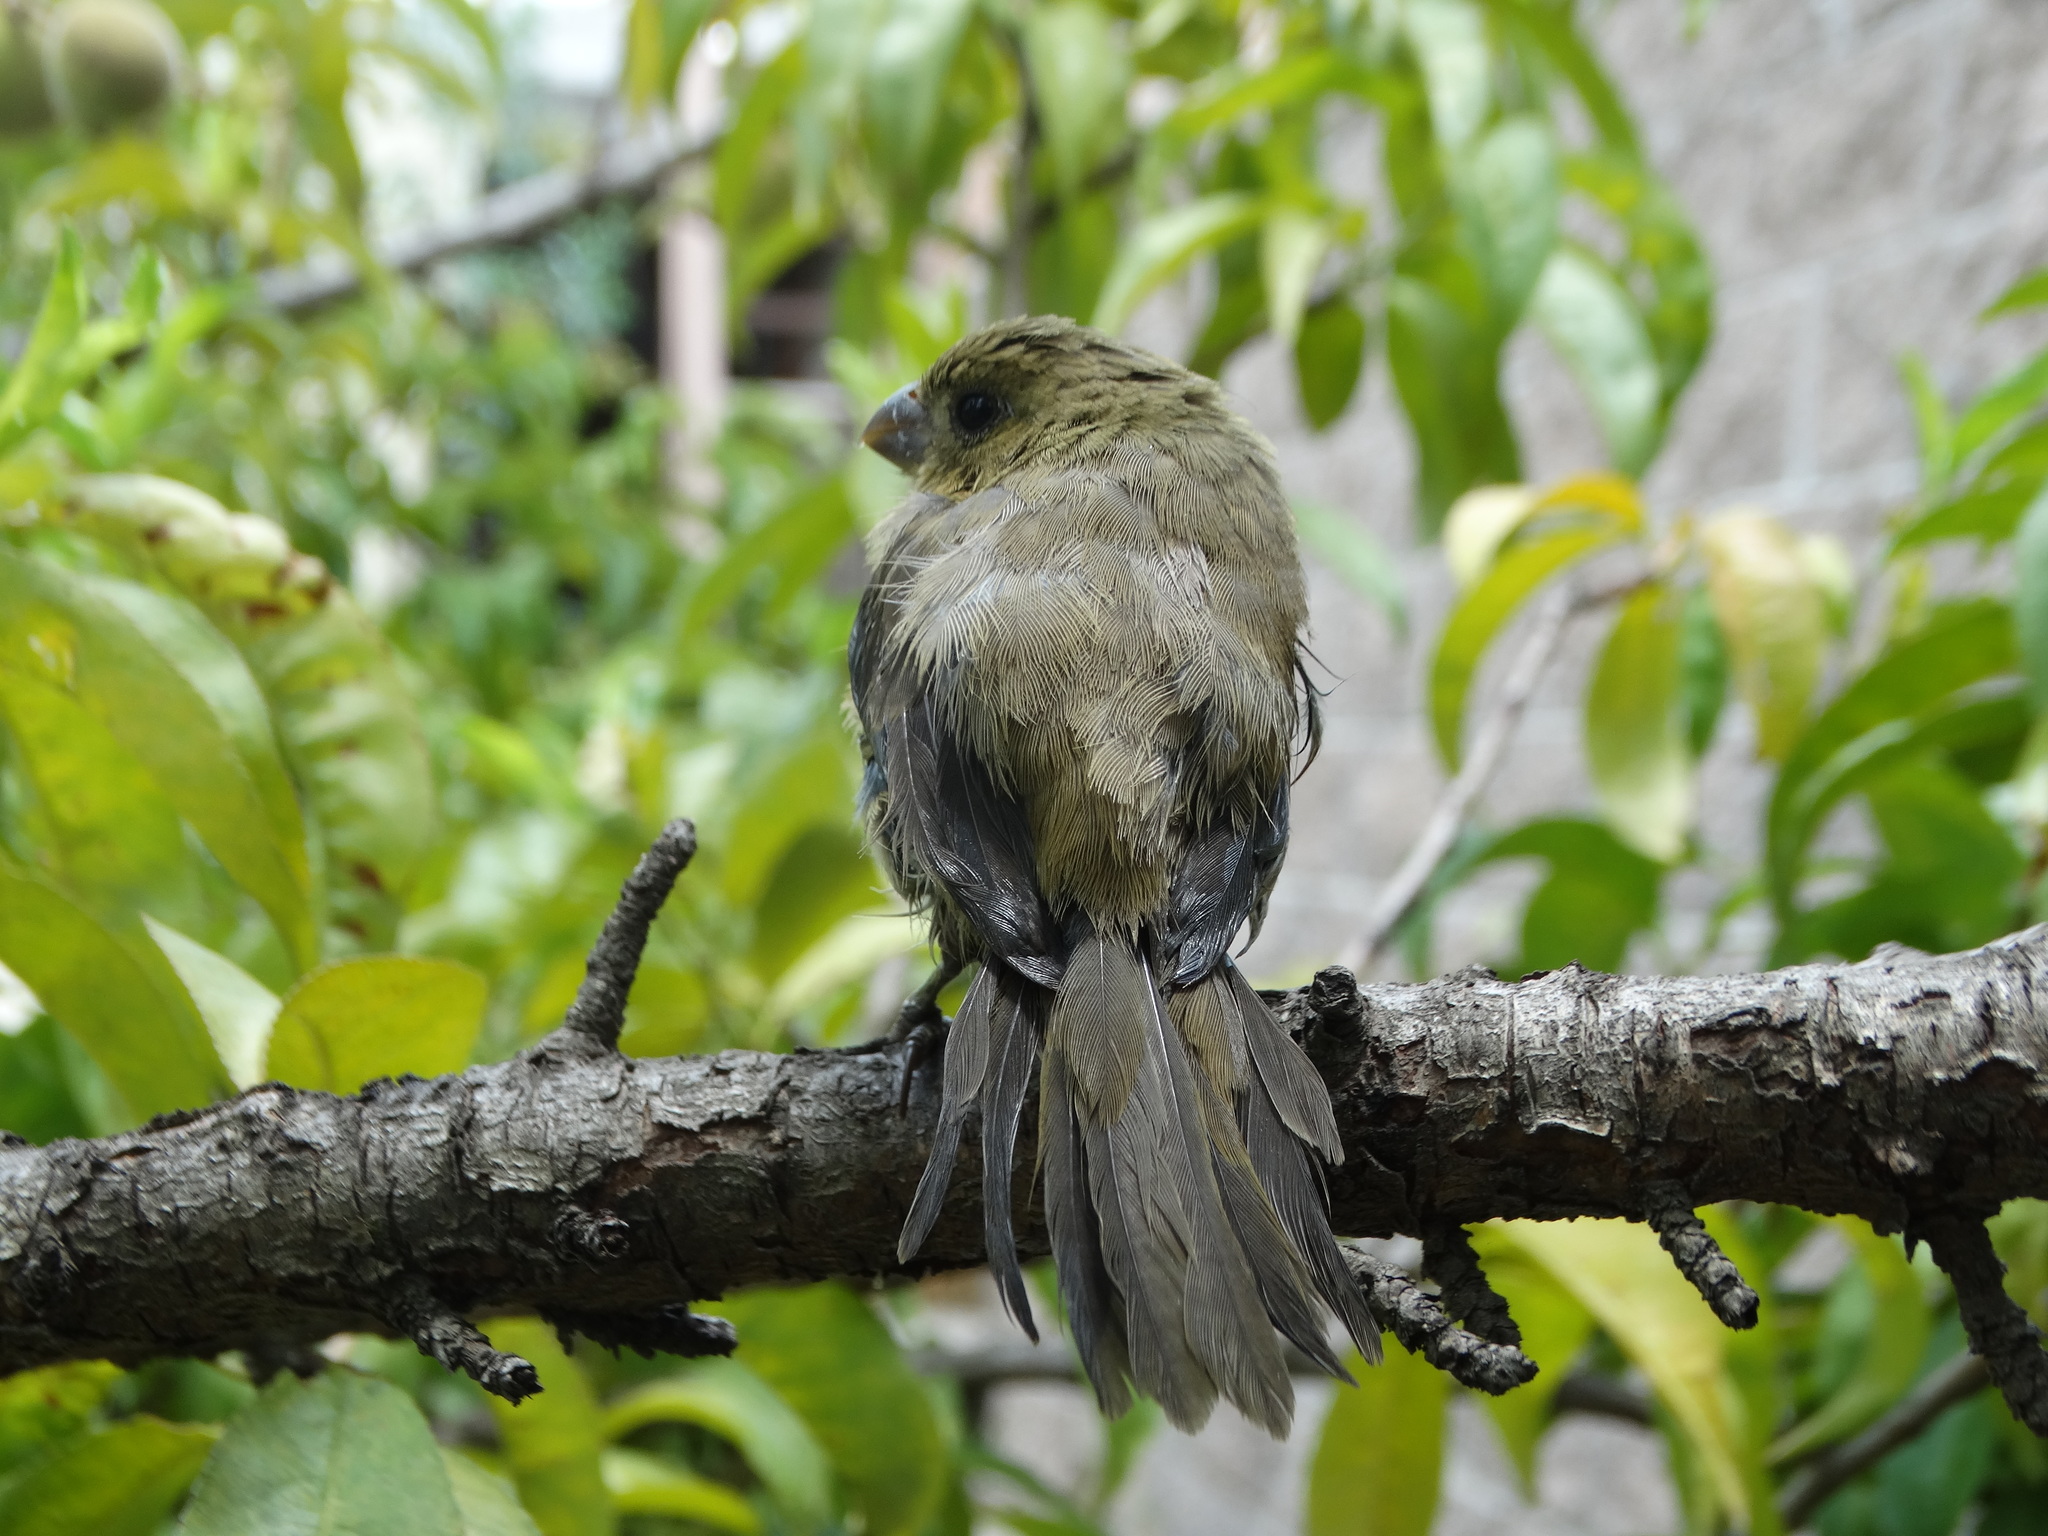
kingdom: Animalia
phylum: Chordata
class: Aves
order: Passeriformes
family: Thraupidae
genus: Sporophila
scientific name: Sporophila torqueola
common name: White-collared seedeater
